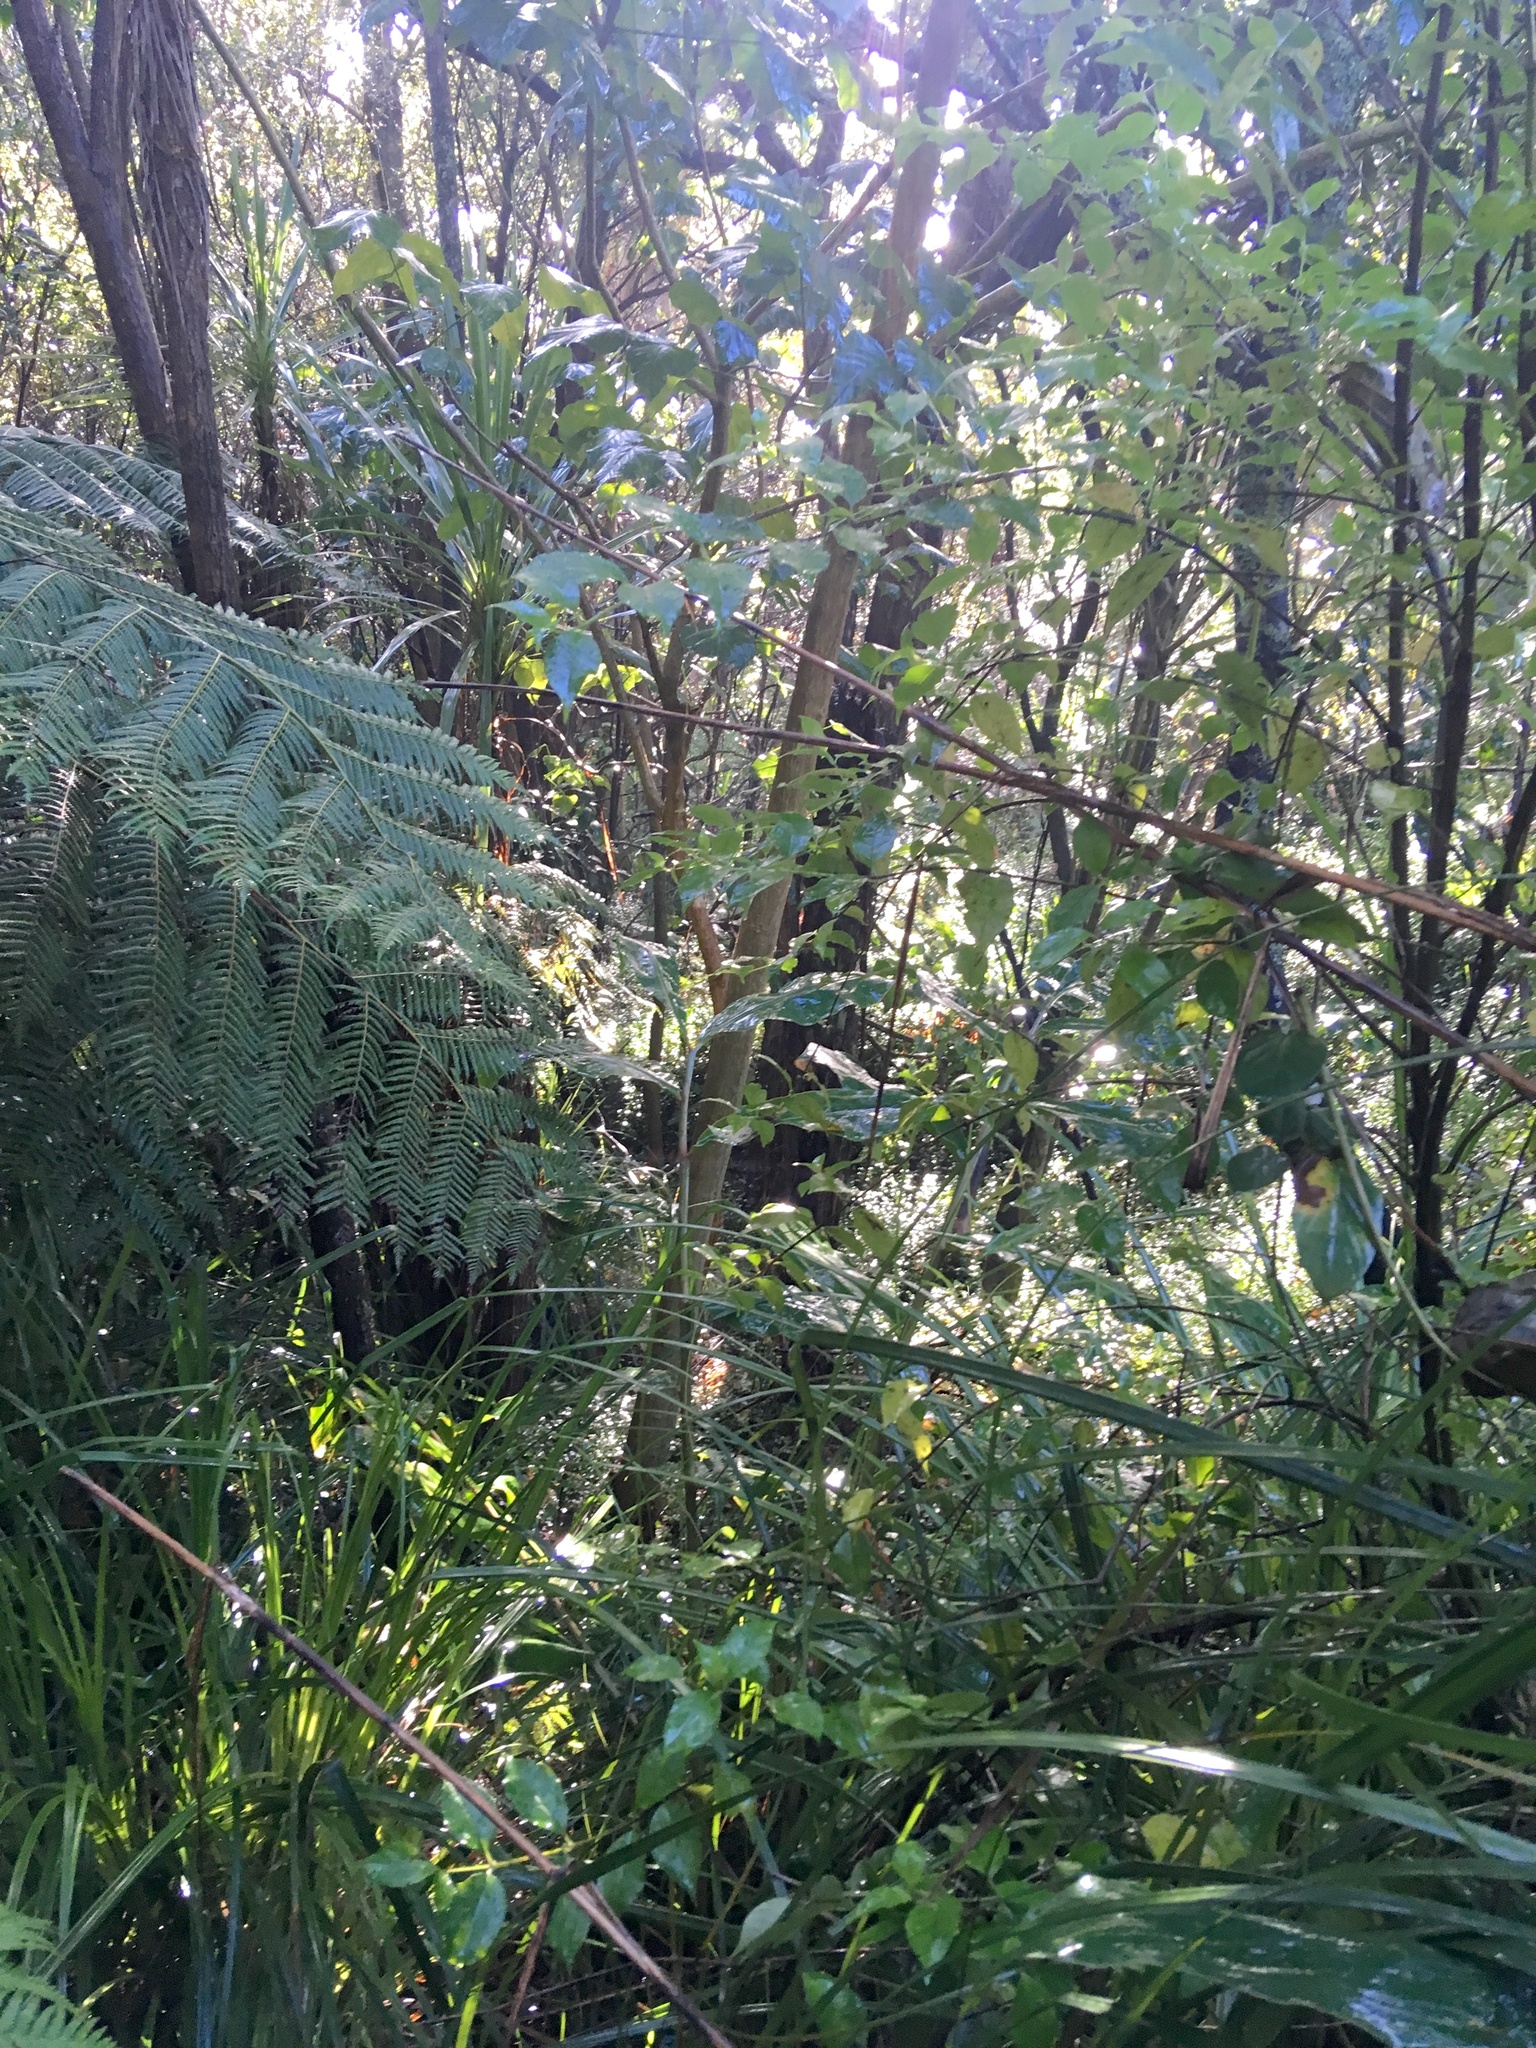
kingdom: Plantae
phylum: Tracheophyta
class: Magnoliopsida
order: Gentianales
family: Loganiaceae
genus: Geniostoma
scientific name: Geniostoma ligustrifolium
